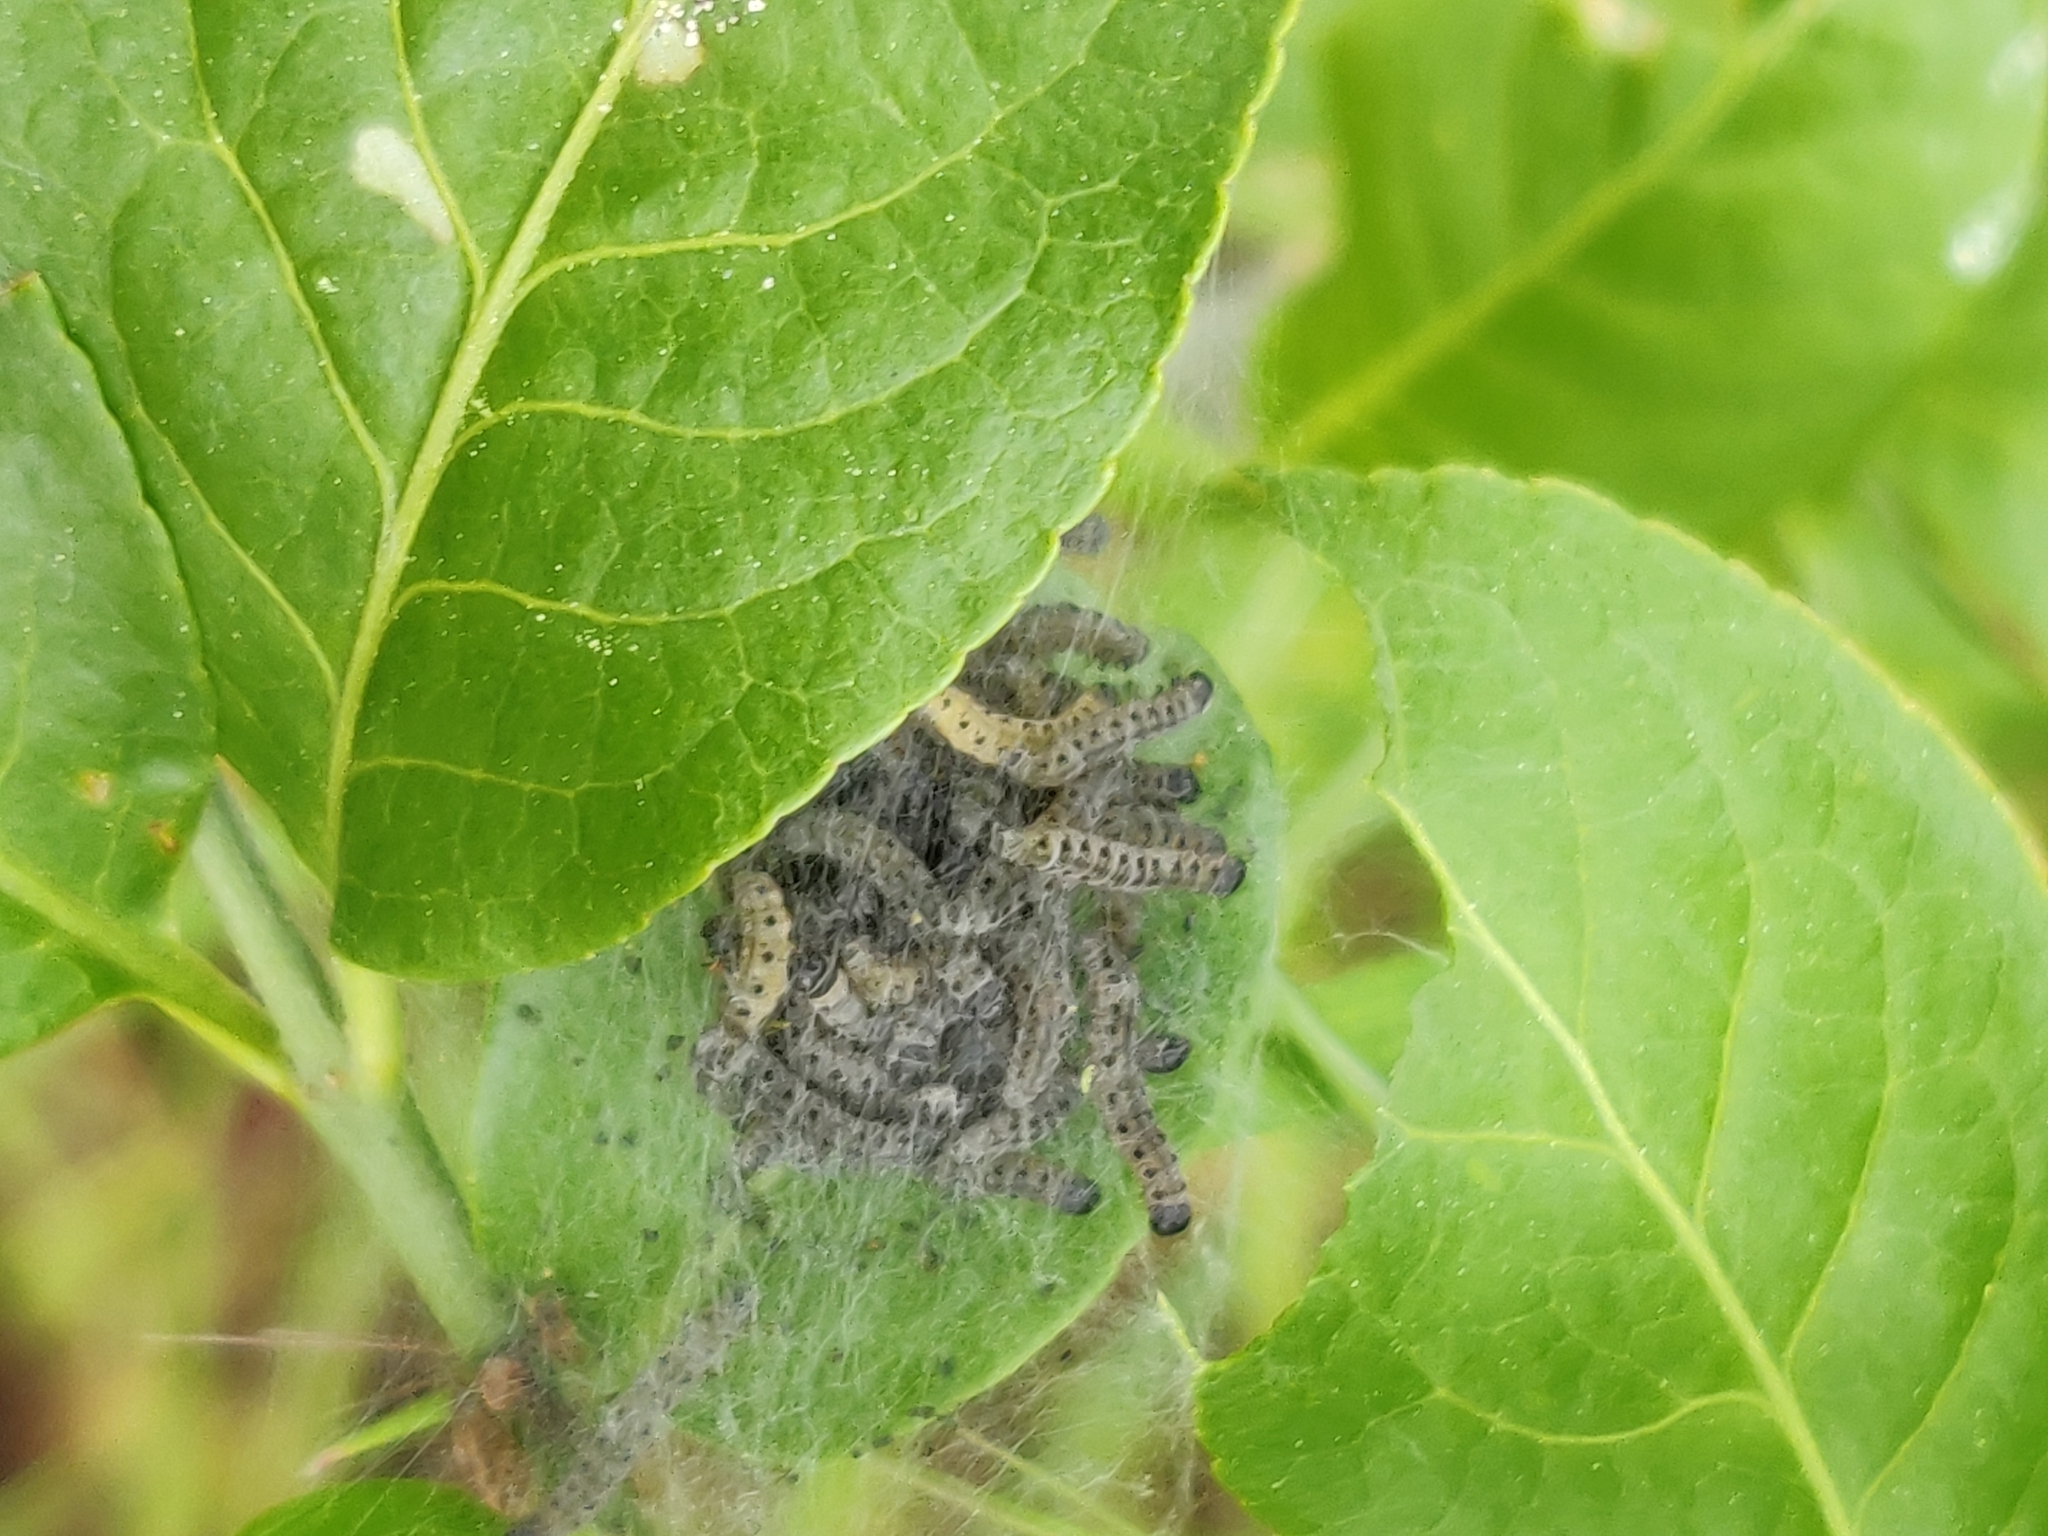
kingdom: Animalia
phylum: Arthropoda
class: Insecta
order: Lepidoptera
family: Yponomeutidae
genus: Yponomeuta
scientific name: Yponomeuta cagnagellus
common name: Spindle ermine
